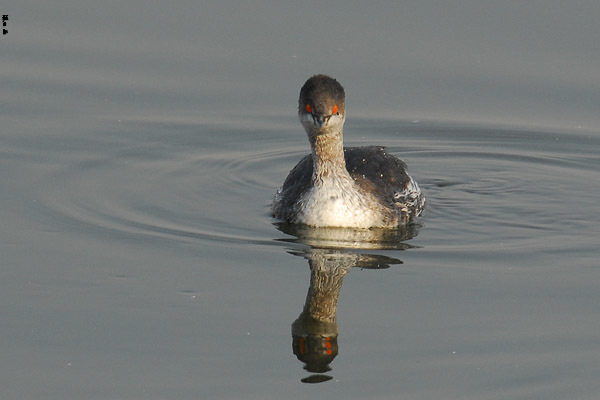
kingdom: Animalia
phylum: Chordata
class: Aves
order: Podicipediformes
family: Podicipedidae
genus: Podiceps
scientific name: Podiceps nigricollis
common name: Black-necked grebe
